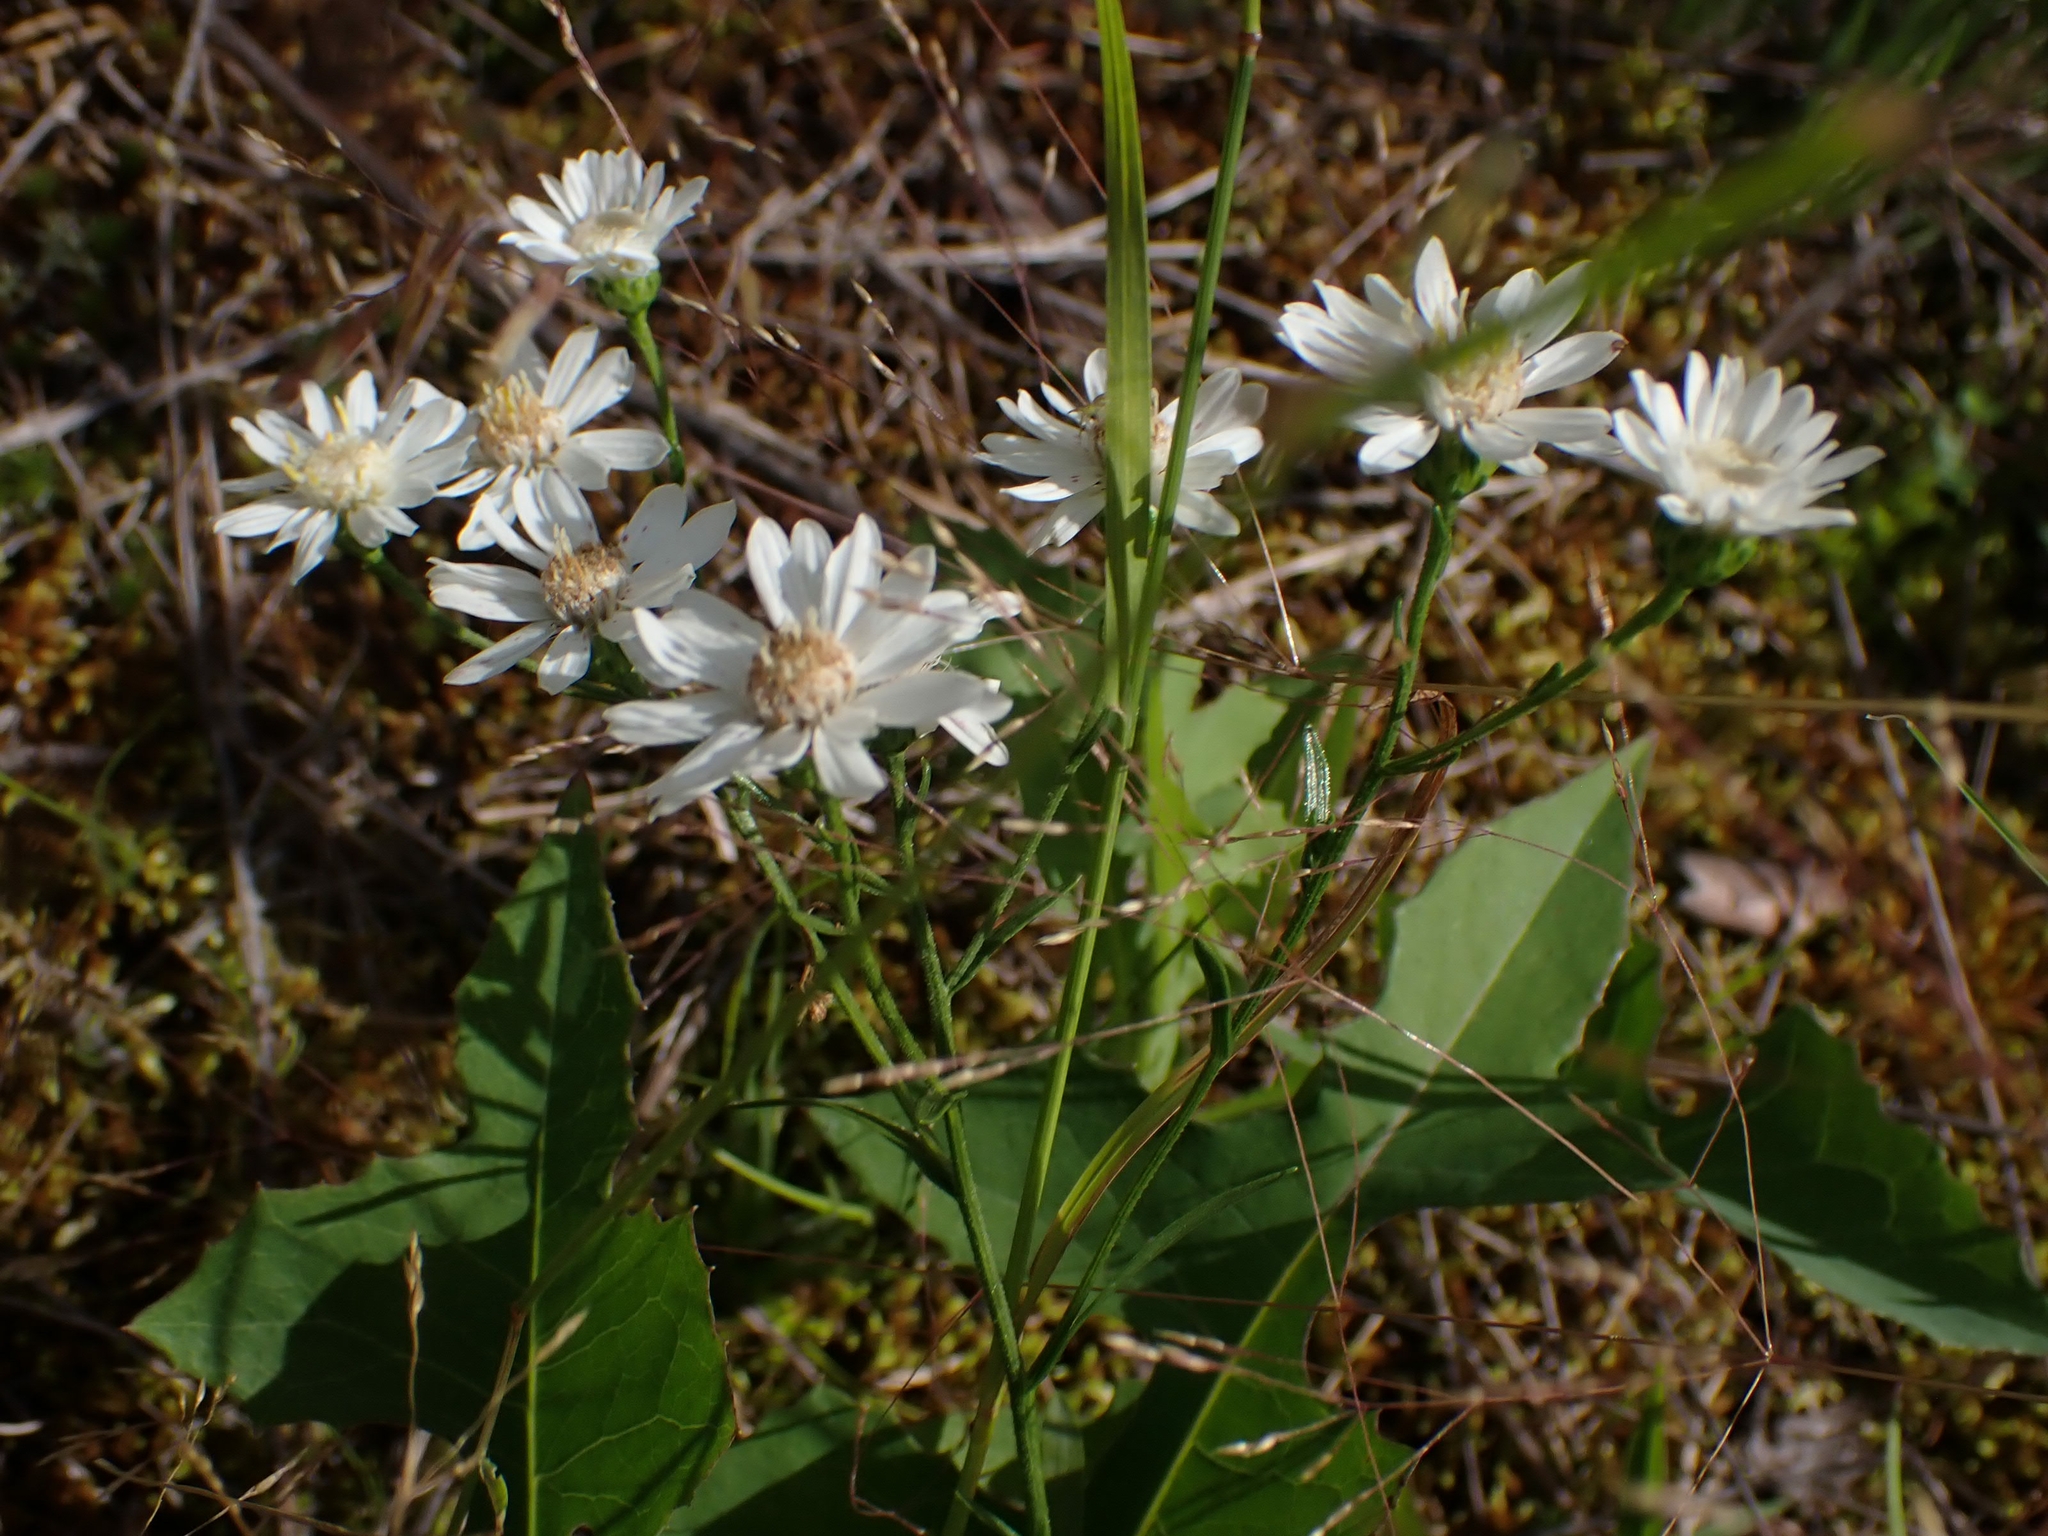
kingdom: Plantae
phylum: Tracheophyta
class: Magnoliopsida
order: Asterales
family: Asteraceae
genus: Solidago
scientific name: Solidago ptarmicoides
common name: White flat-top goldenrod
